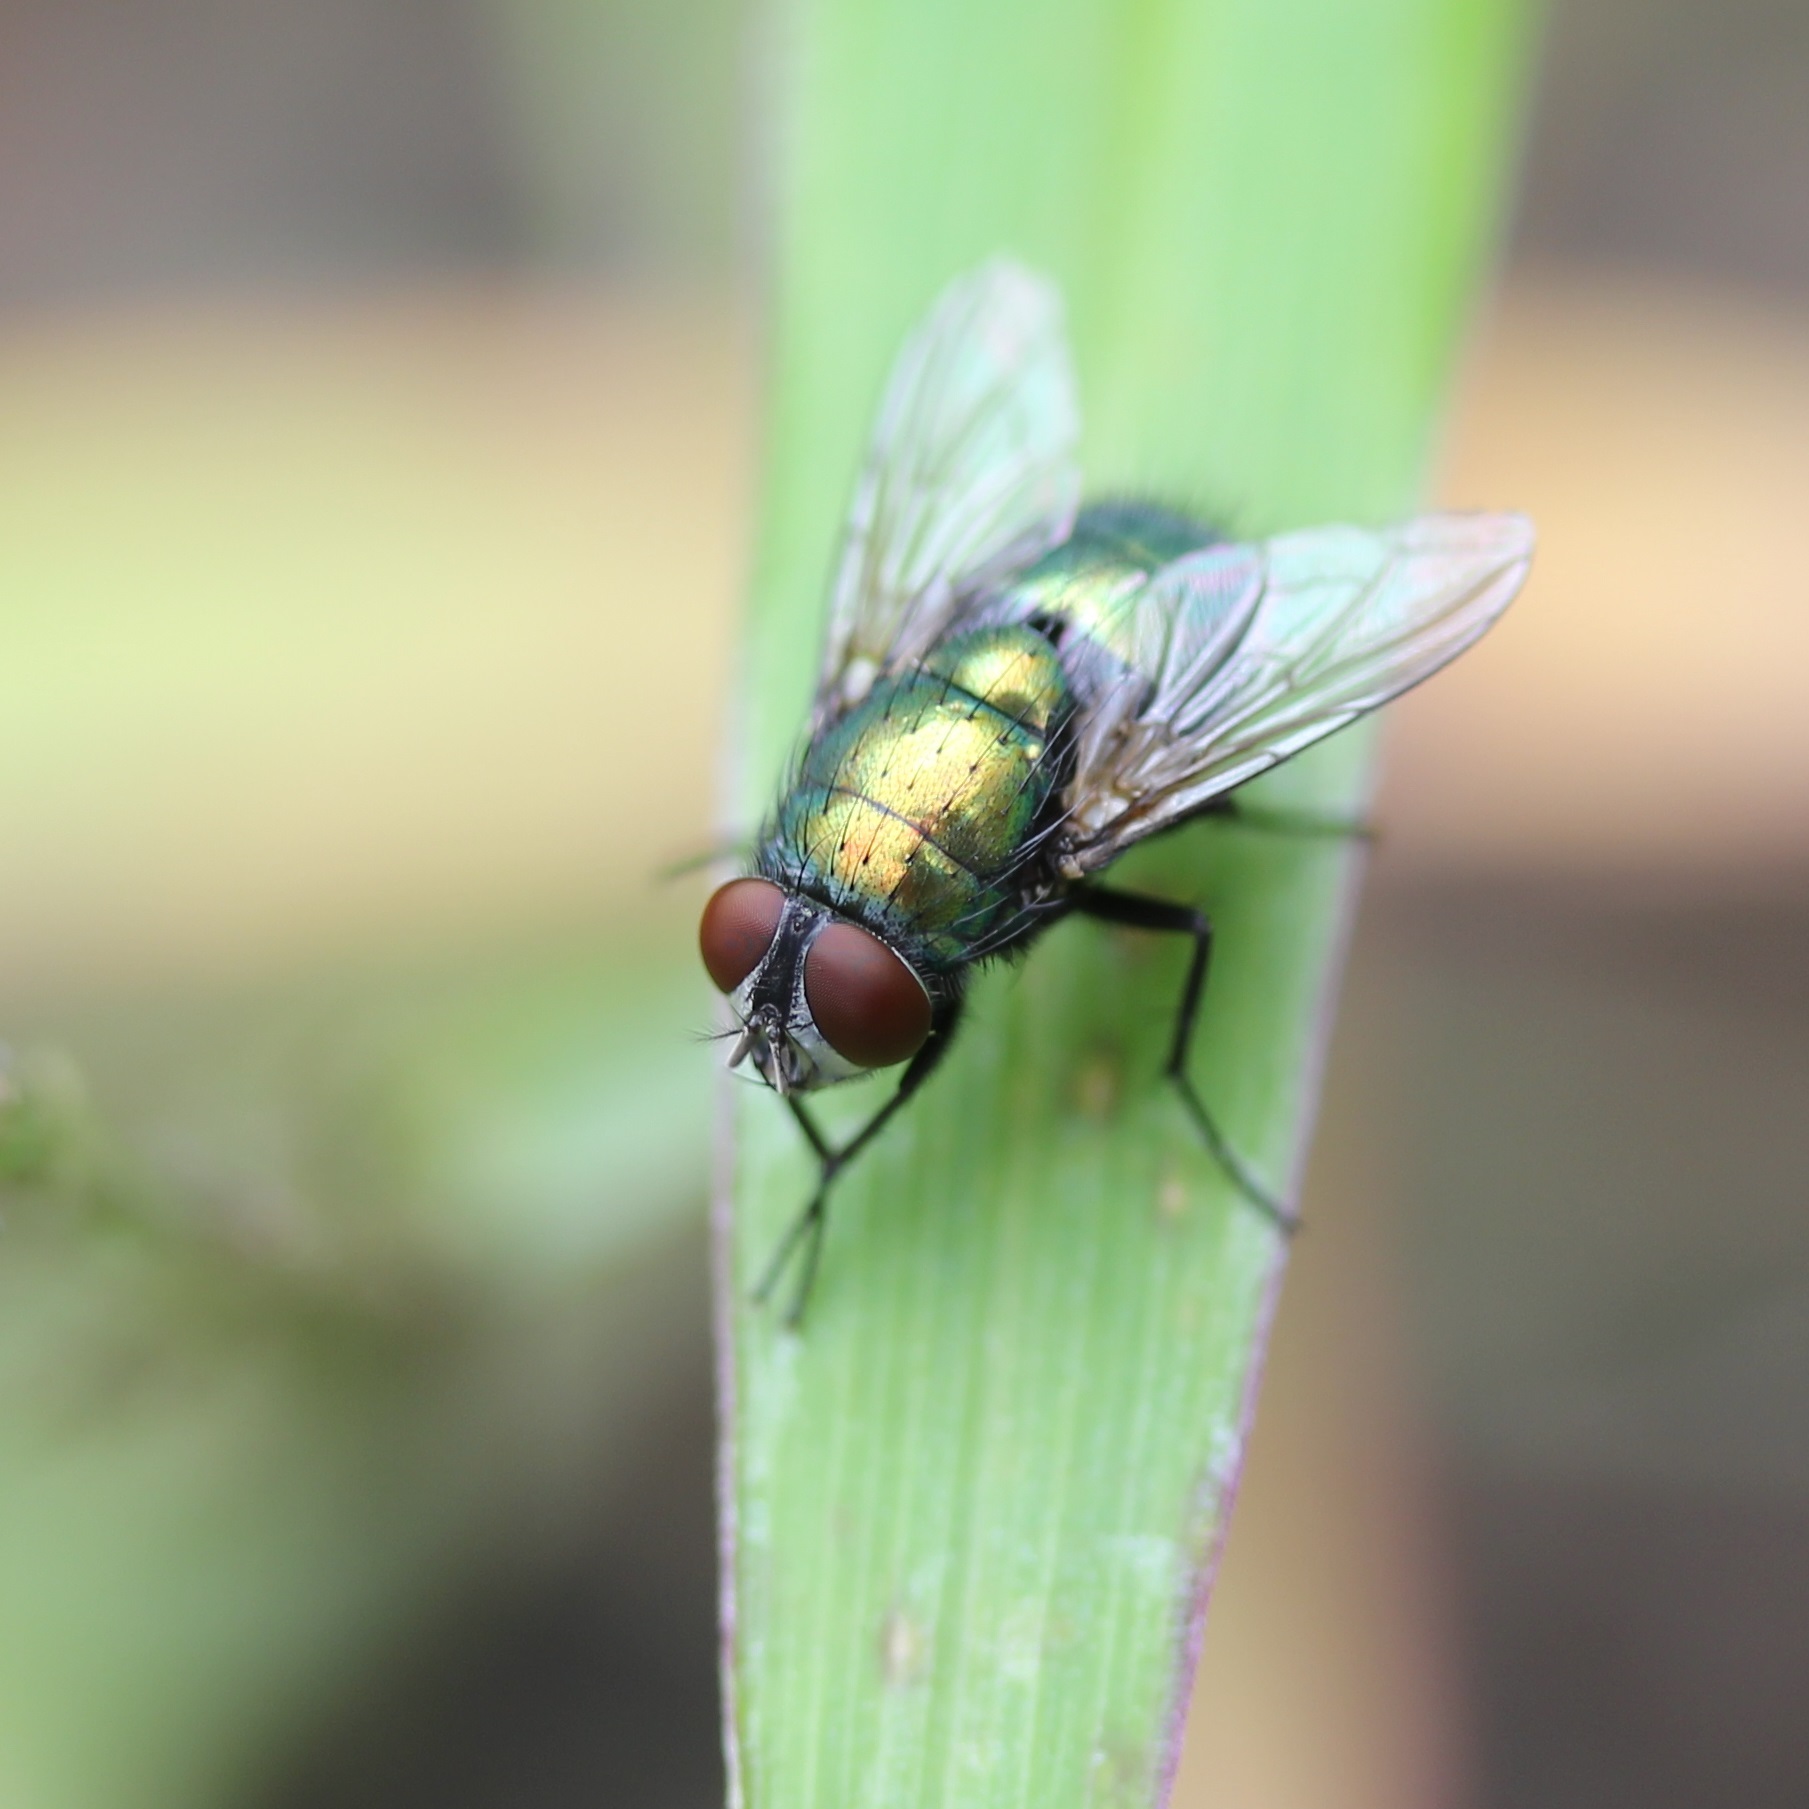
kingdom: Animalia
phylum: Arthropoda
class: Insecta
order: Diptera
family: Calliphoridae
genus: Lucilia
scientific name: Lucilia sericata
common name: Blow fly
